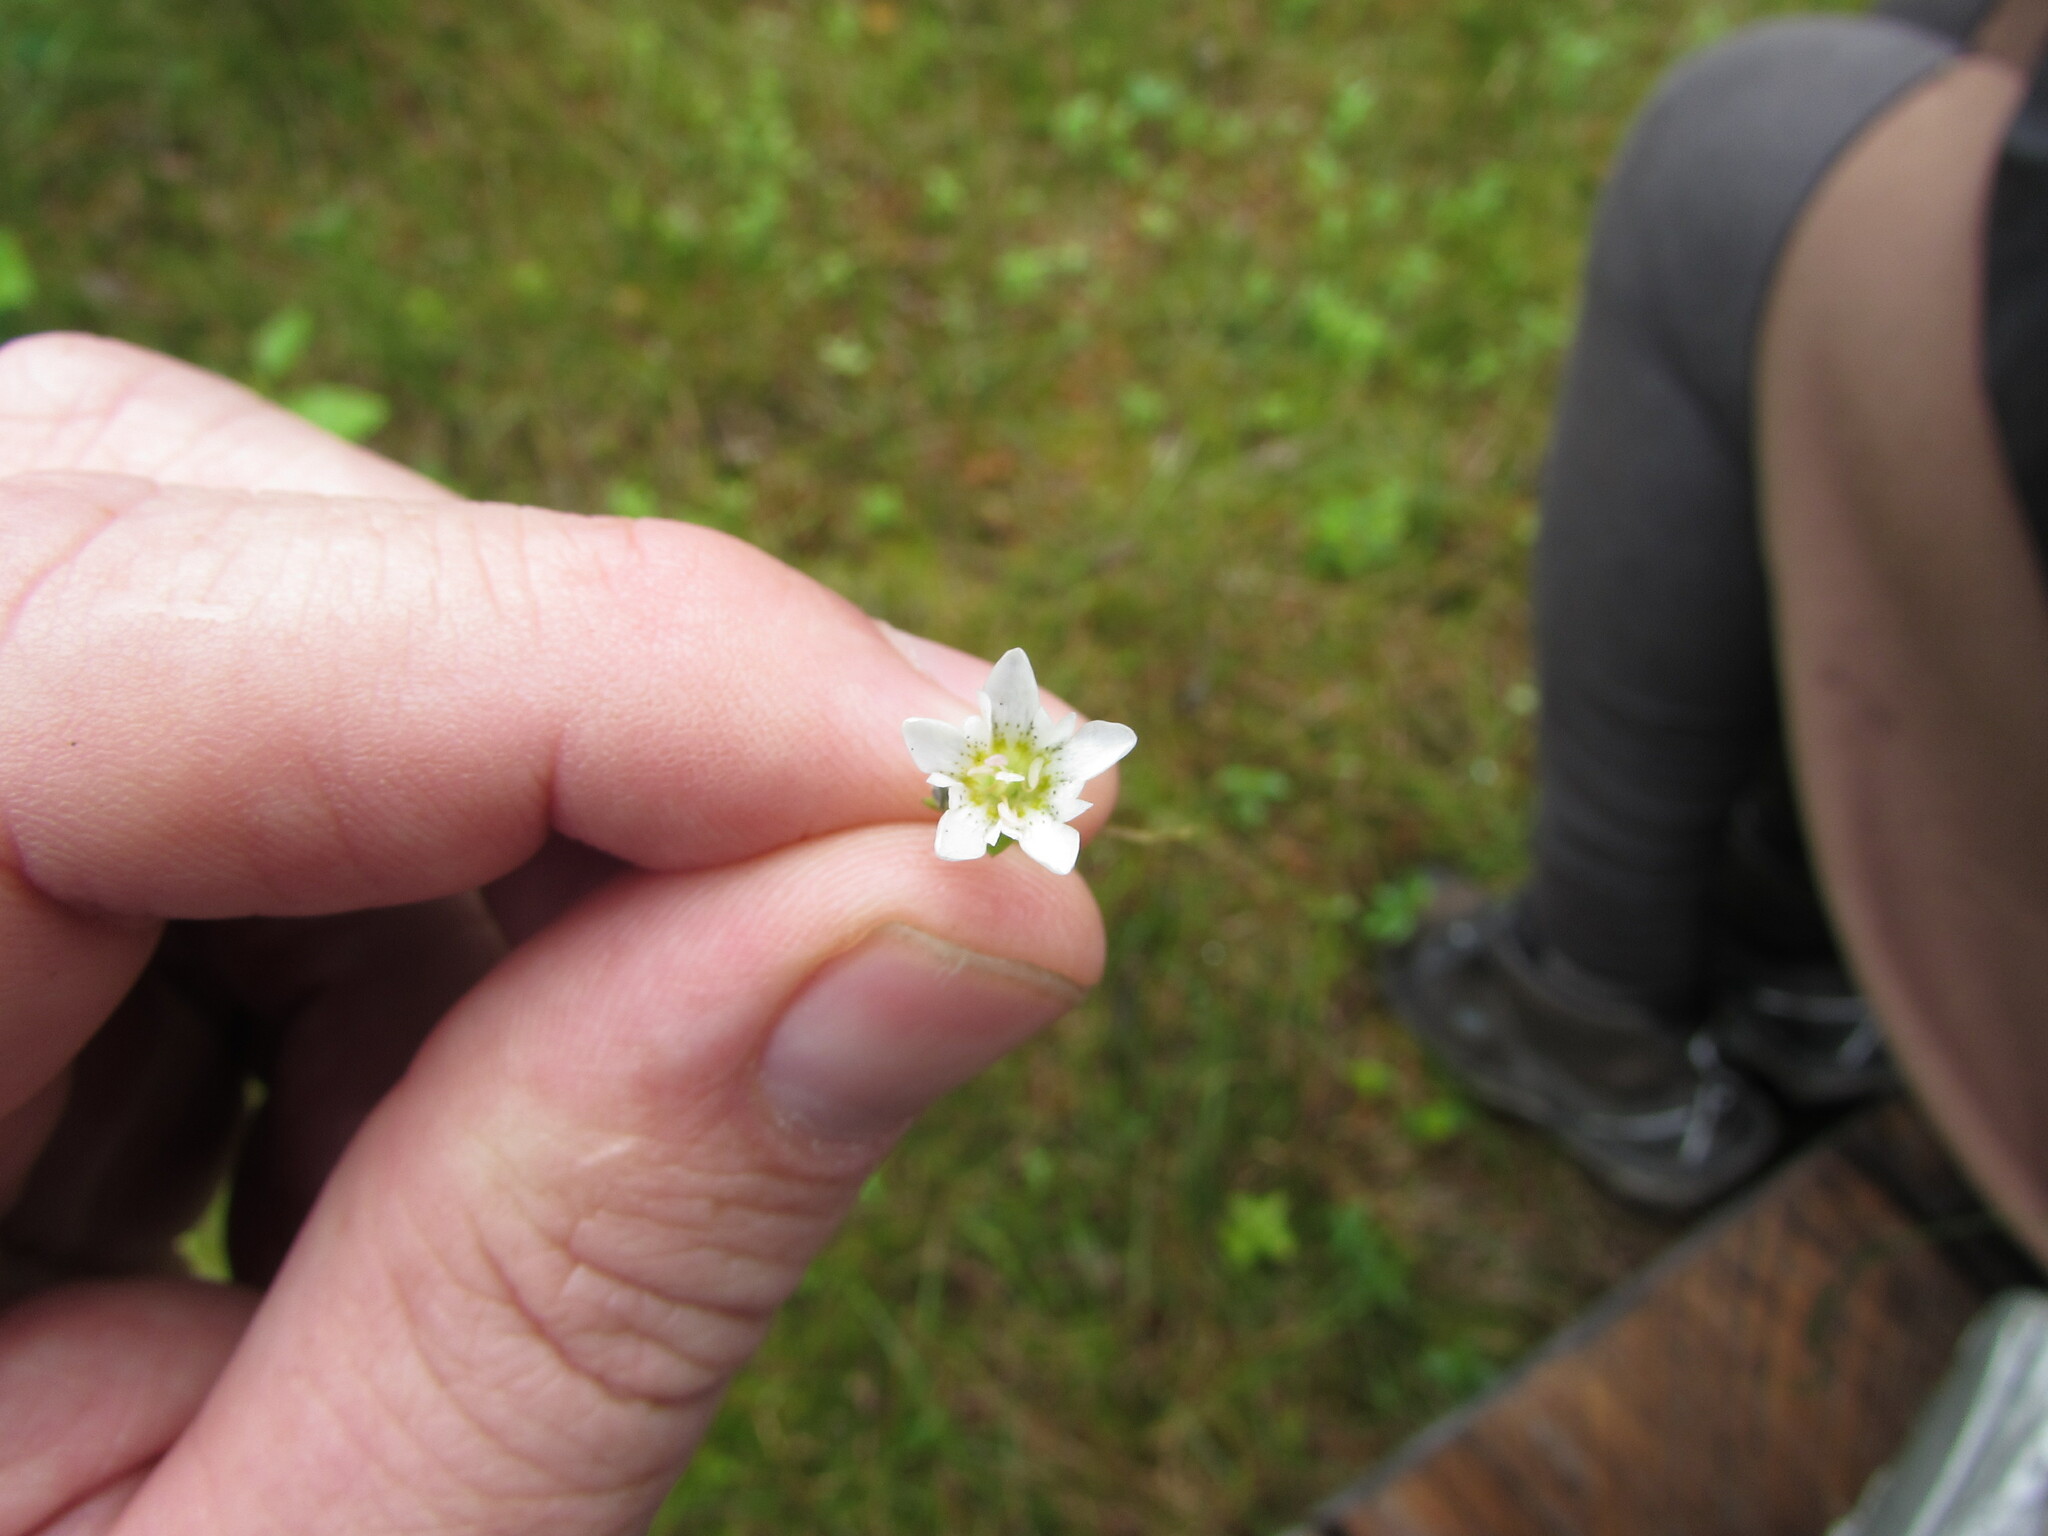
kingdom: Plantae
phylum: Tracheophyta
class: Magnoliopsida
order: Gentianales
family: Gentianaceae
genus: Gentiana
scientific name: Gentiana douglasiana
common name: Swamp gentian
